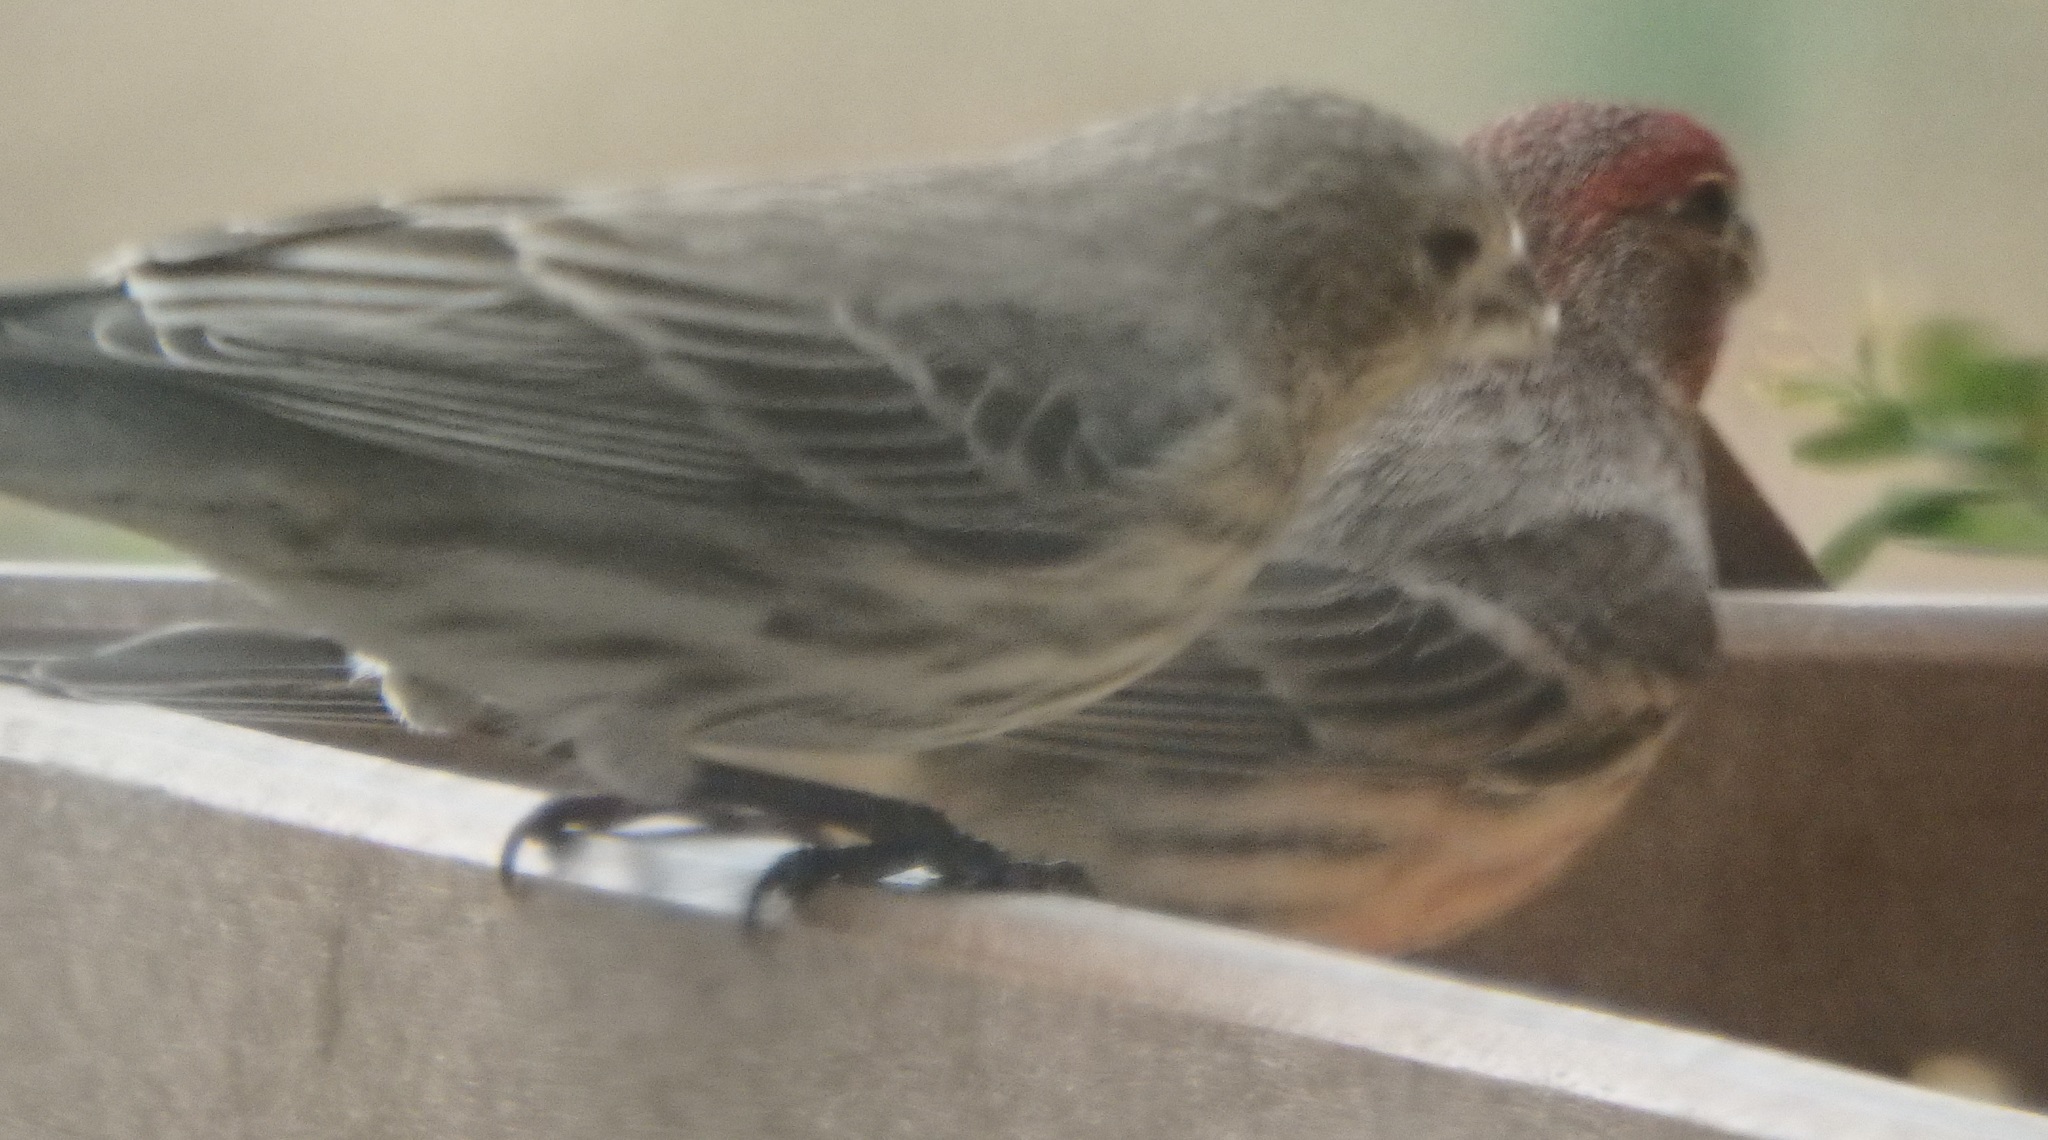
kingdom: Animalia
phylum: Chordata
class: Aves
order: Passeriformes
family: Fringillidae
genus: Haemorhous
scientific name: Haemorhous mexicanus
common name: House finch
